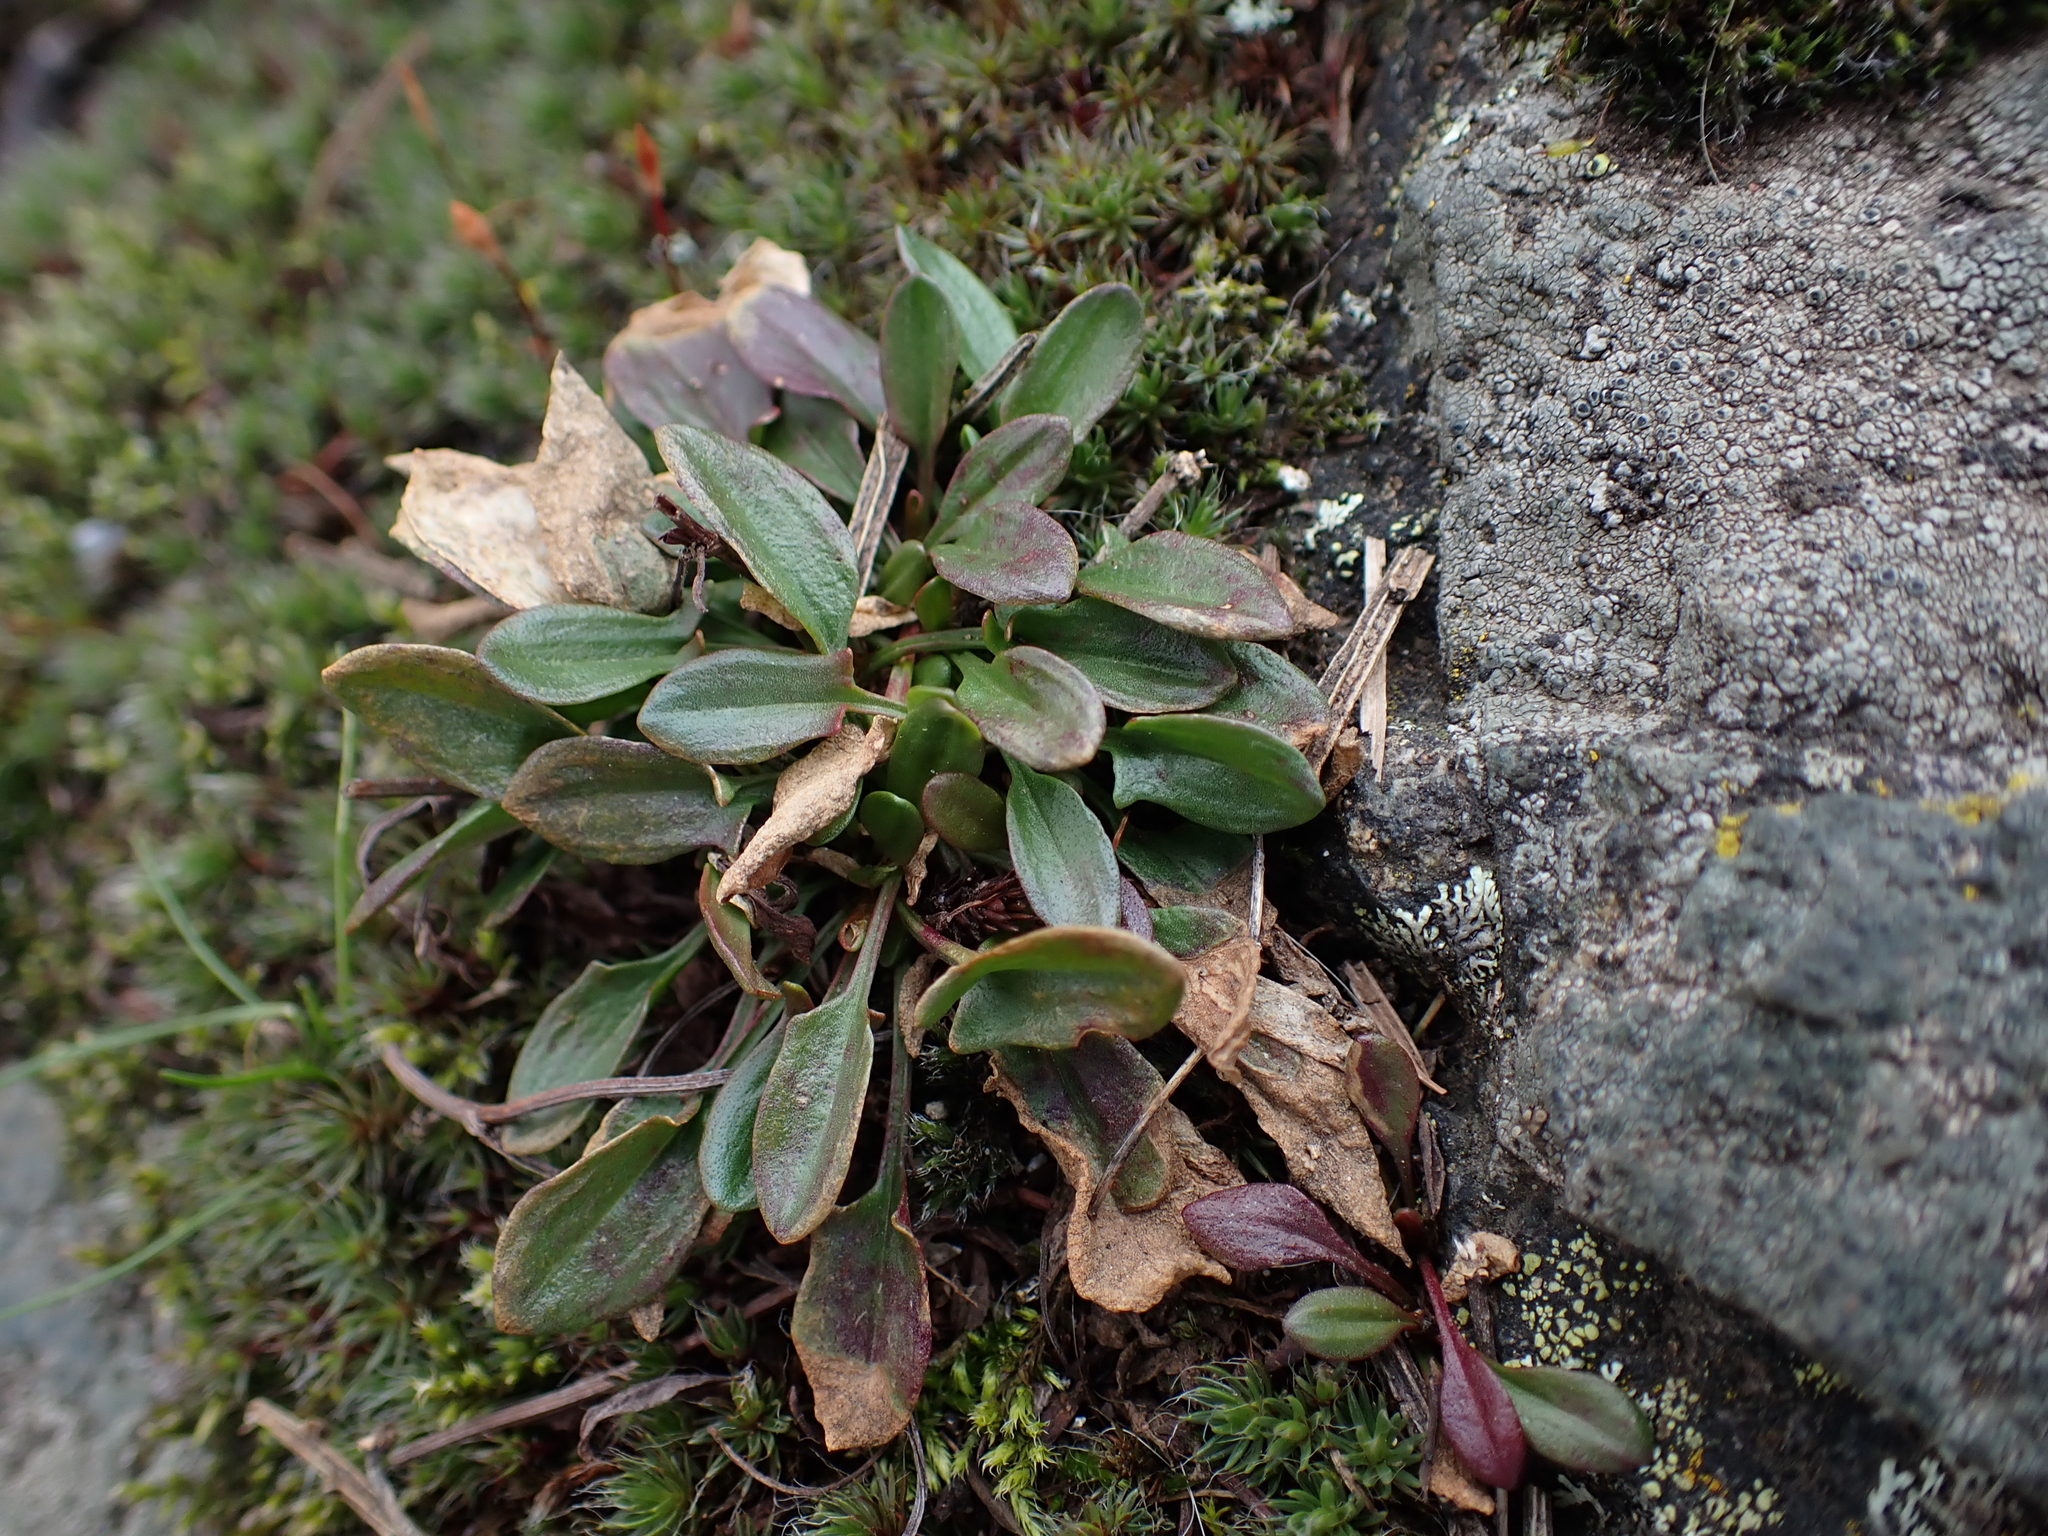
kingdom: Plantae
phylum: Tracheophyta
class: Magnoliopsida
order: Caryophyllales
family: Polygonaceae
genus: Rumex
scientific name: Rumex acetosella
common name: Common sheep sorrel
